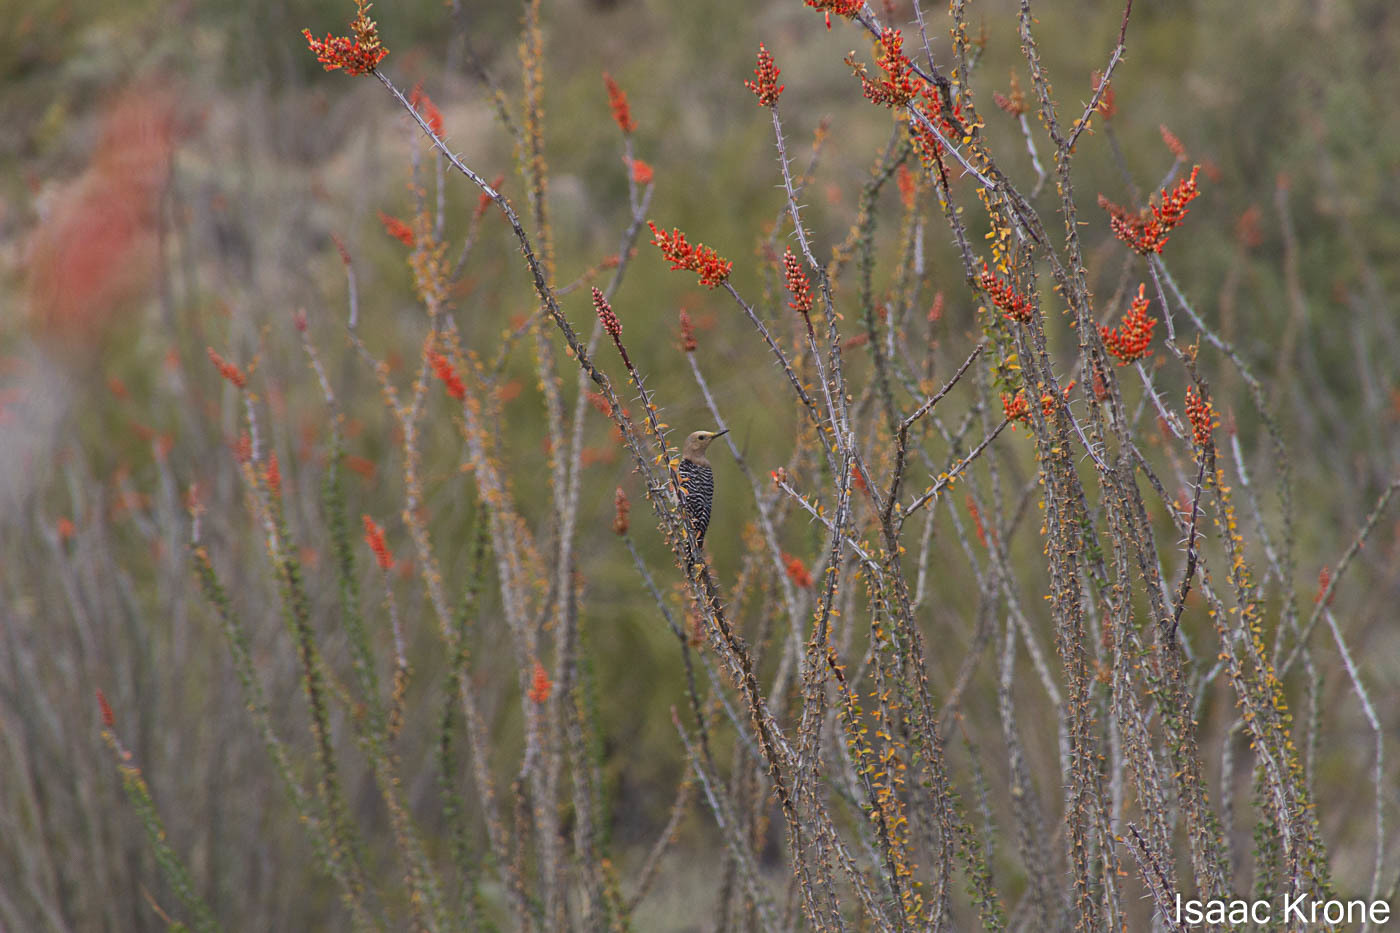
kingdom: Animalia
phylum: Chordata
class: Aves
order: Piciformes
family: Picidae
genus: Melanerpes
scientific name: Melanerpes uropygialis
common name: Gila woodpecker
